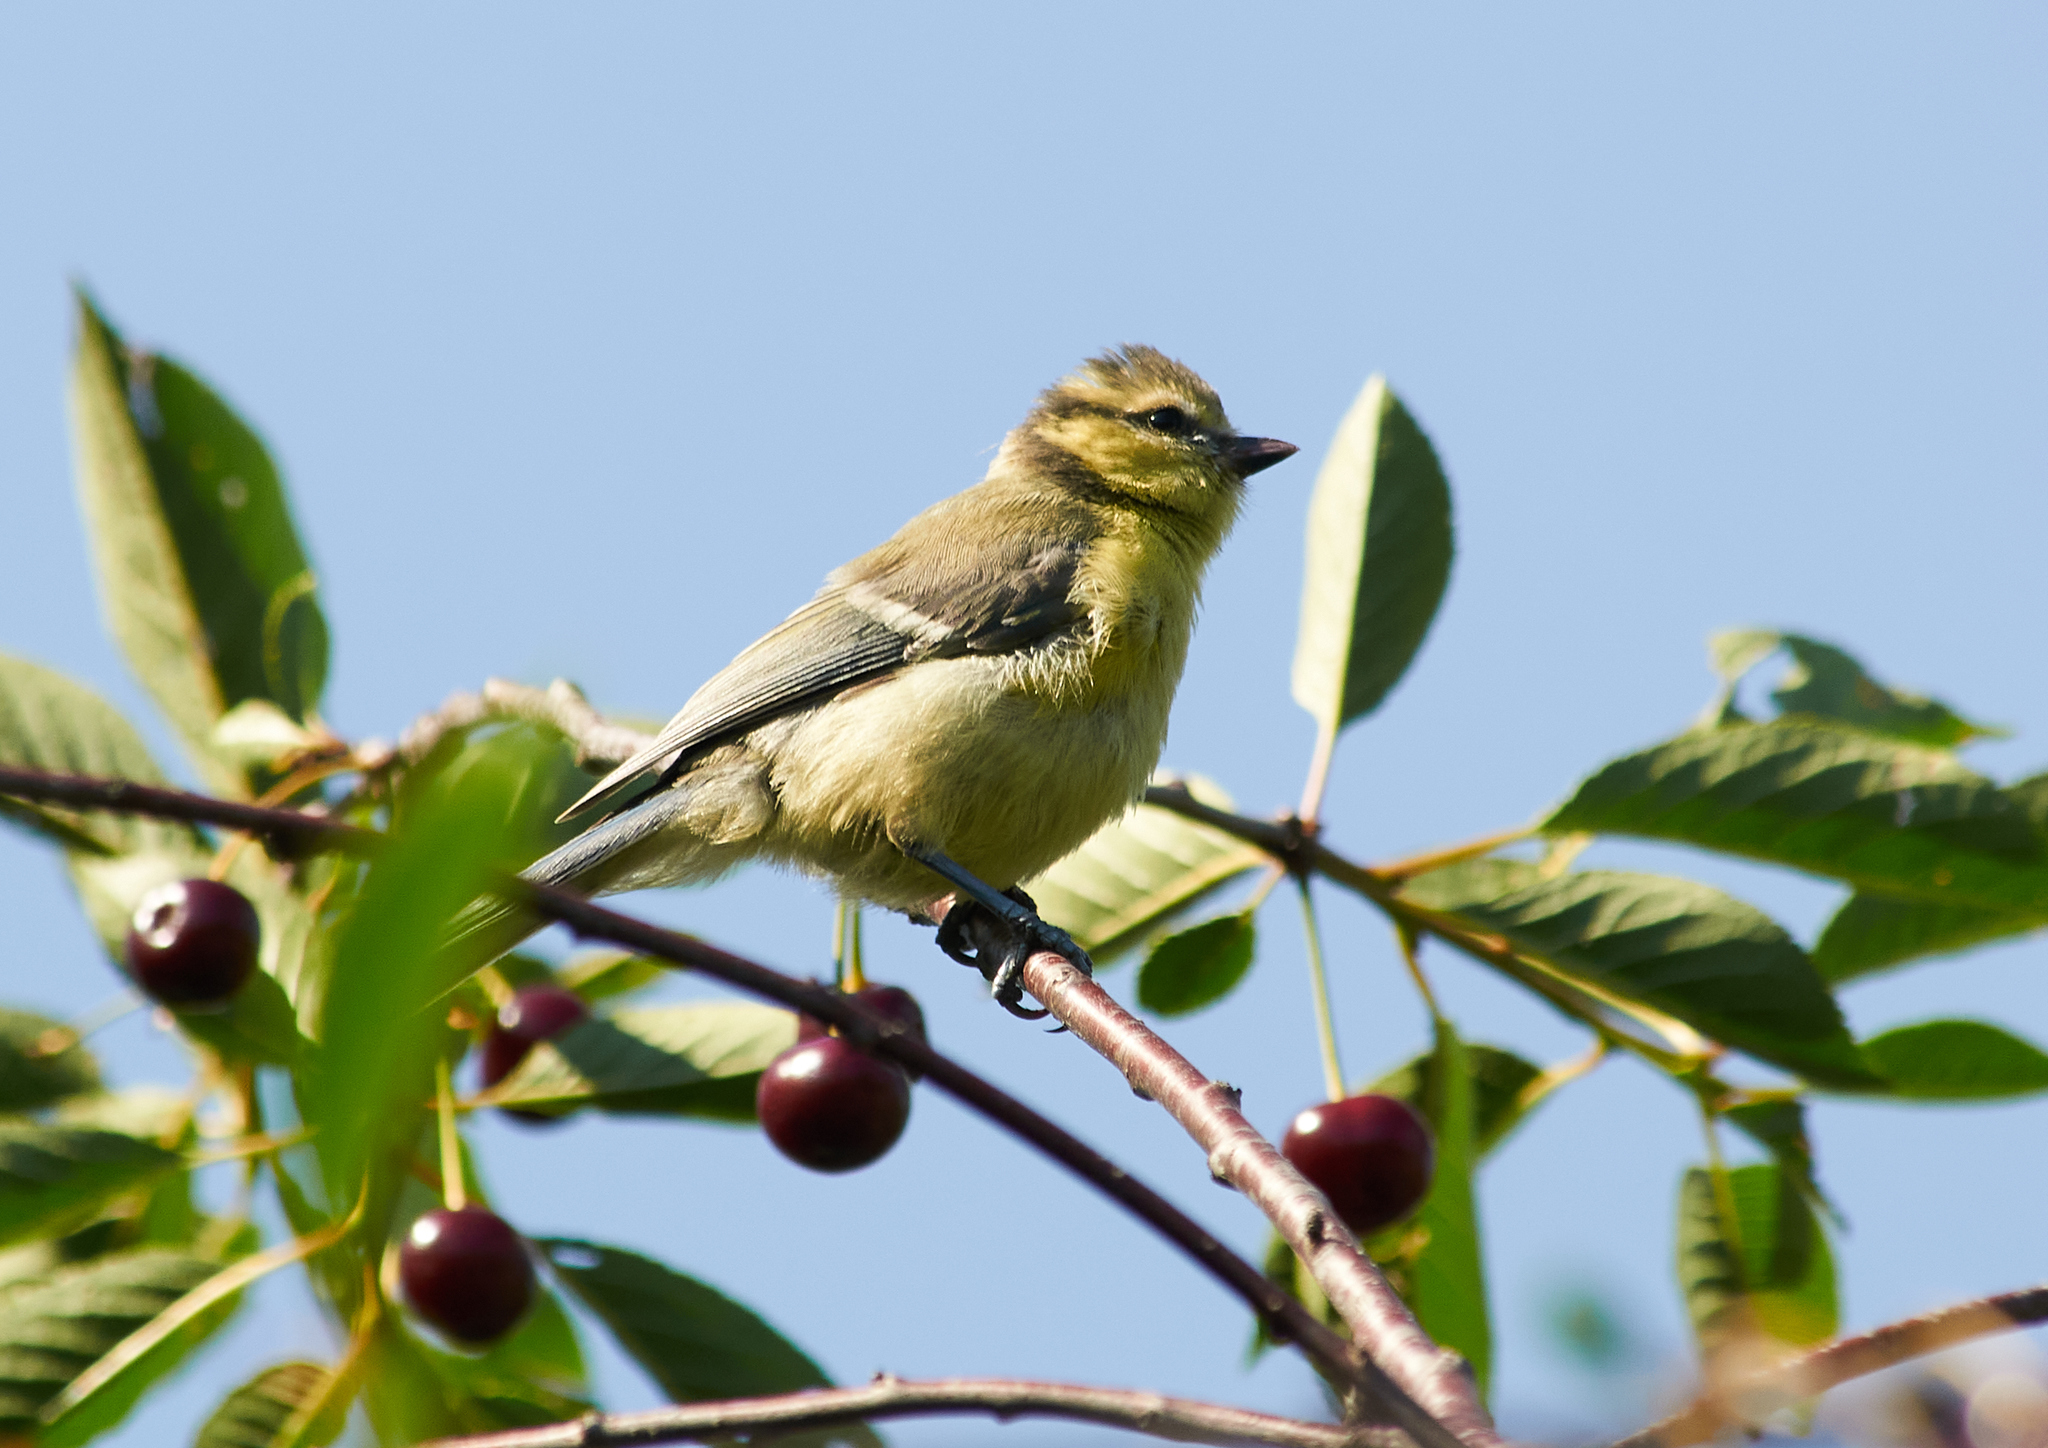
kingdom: Animalia
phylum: Chordata
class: Aves
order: Passeriformes
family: Paridae
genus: Cyanistes
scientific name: Cyanistes caeruleus
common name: Eurasian blue tit
